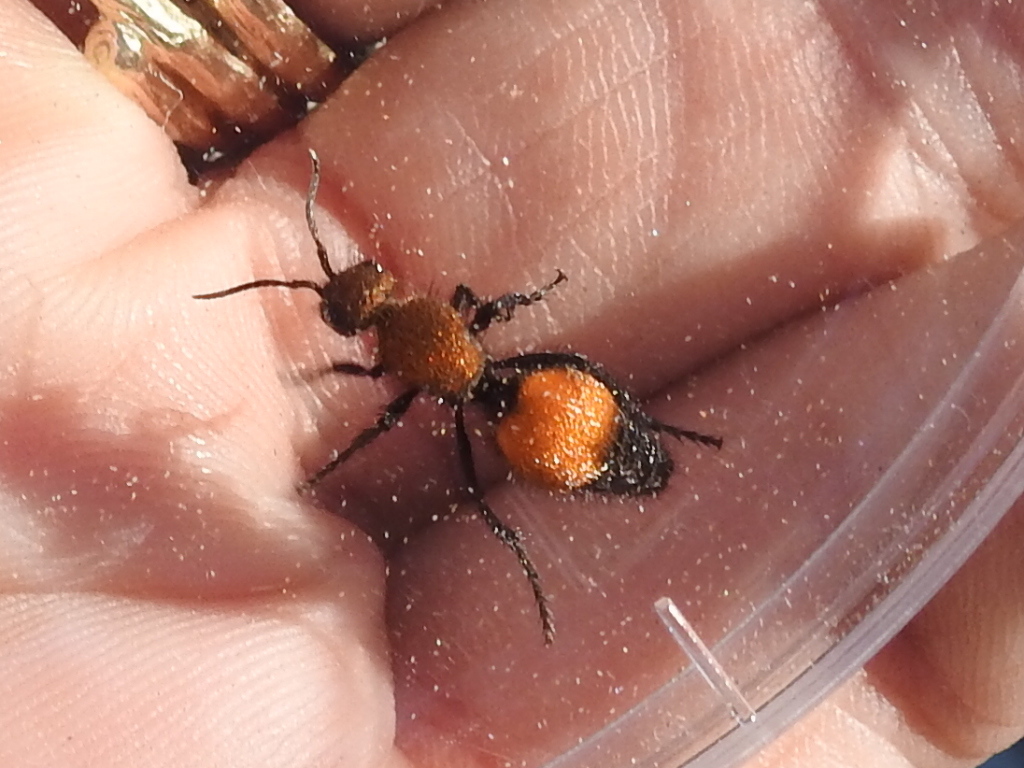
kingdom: Animalia
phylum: Arthropoda
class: Insecta
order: Hymenoptera
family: Mutillidae
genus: Dasymutilla
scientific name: Dasymutilla
